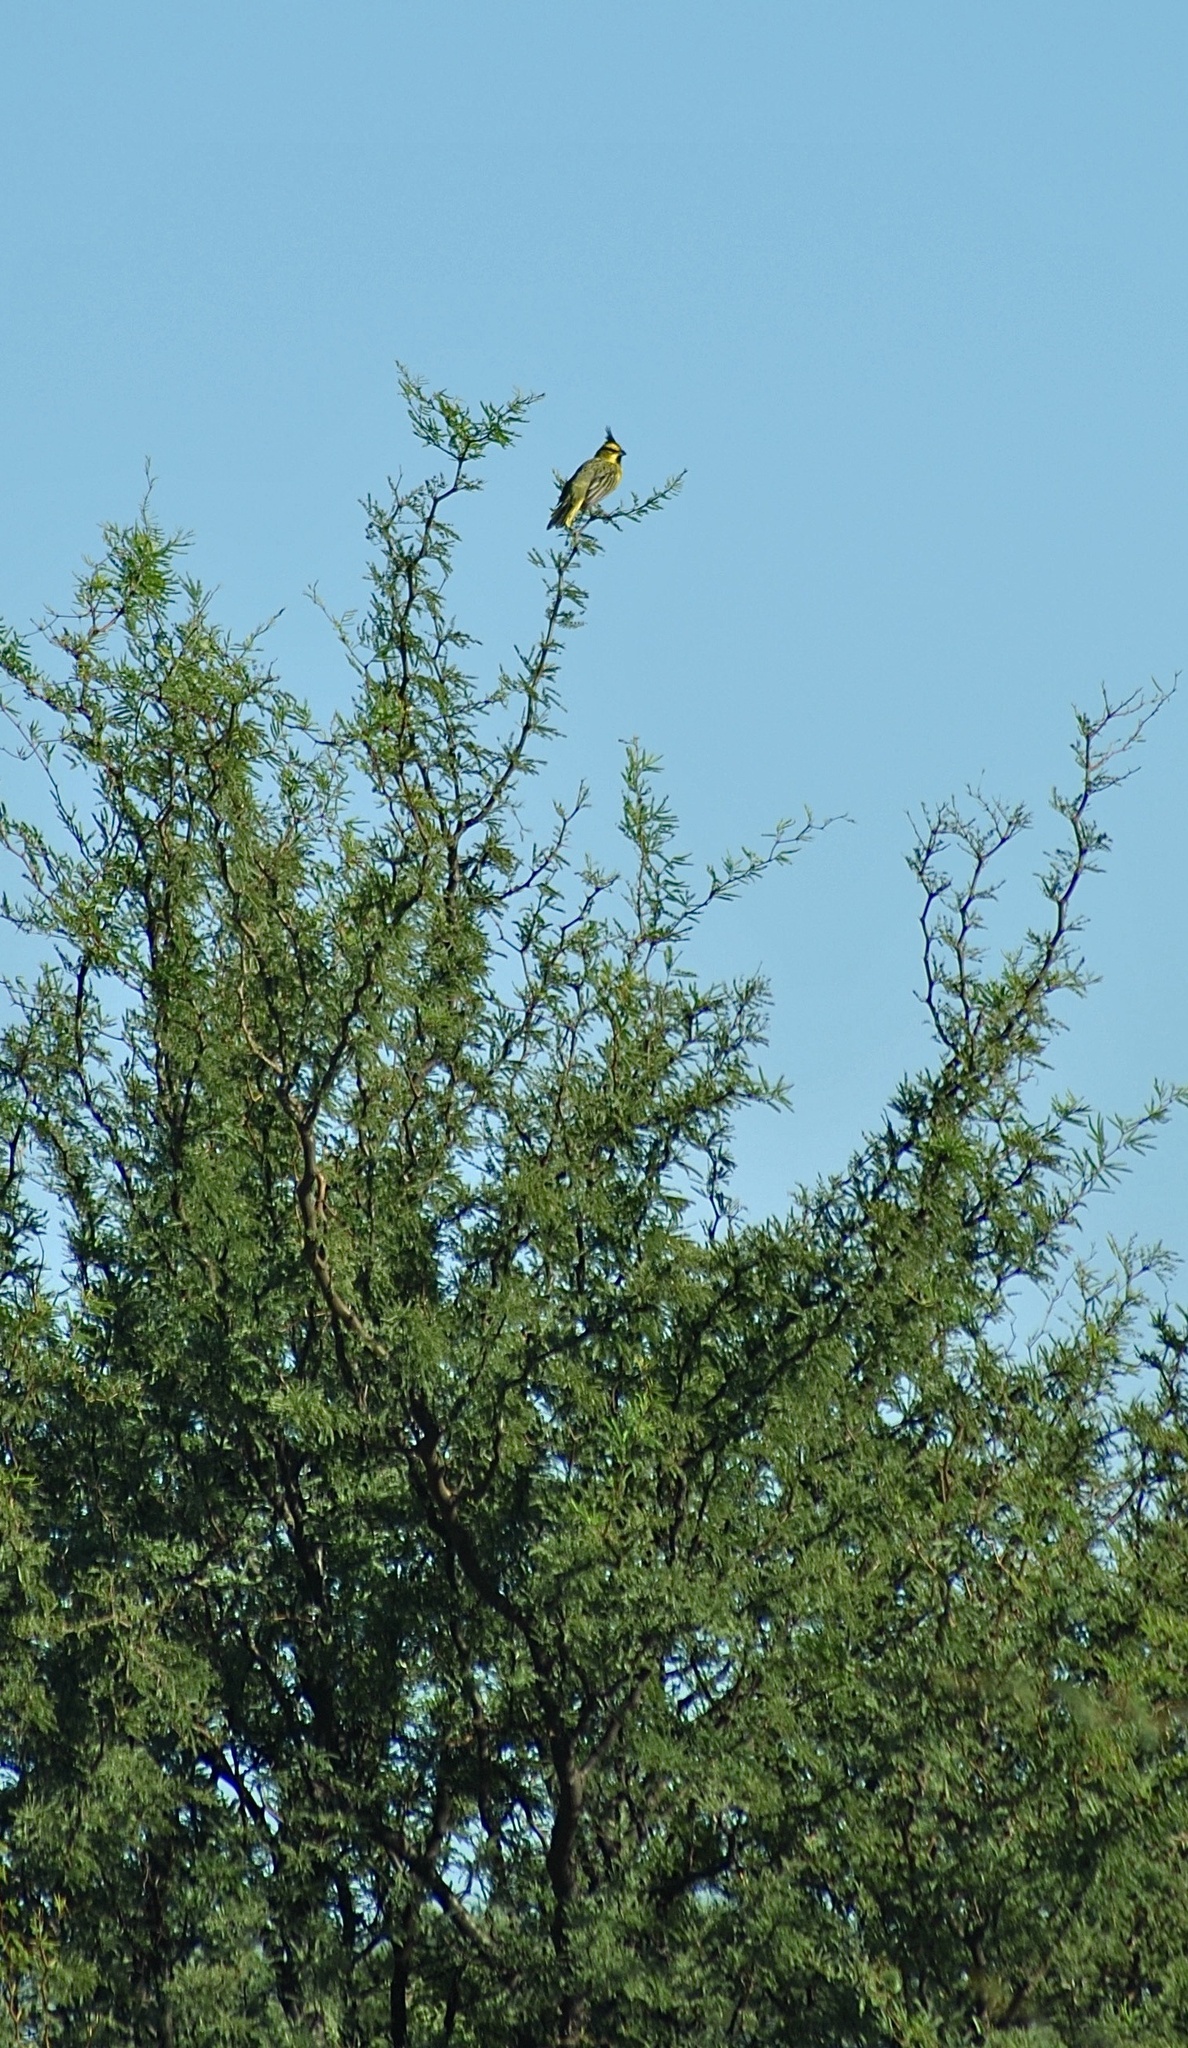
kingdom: Animalia
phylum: Chordata
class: Aves
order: Passeriformes
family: Thraupidae
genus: Gubernatrix
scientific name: Gubernatrix cristata
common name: Yellow cardinal
